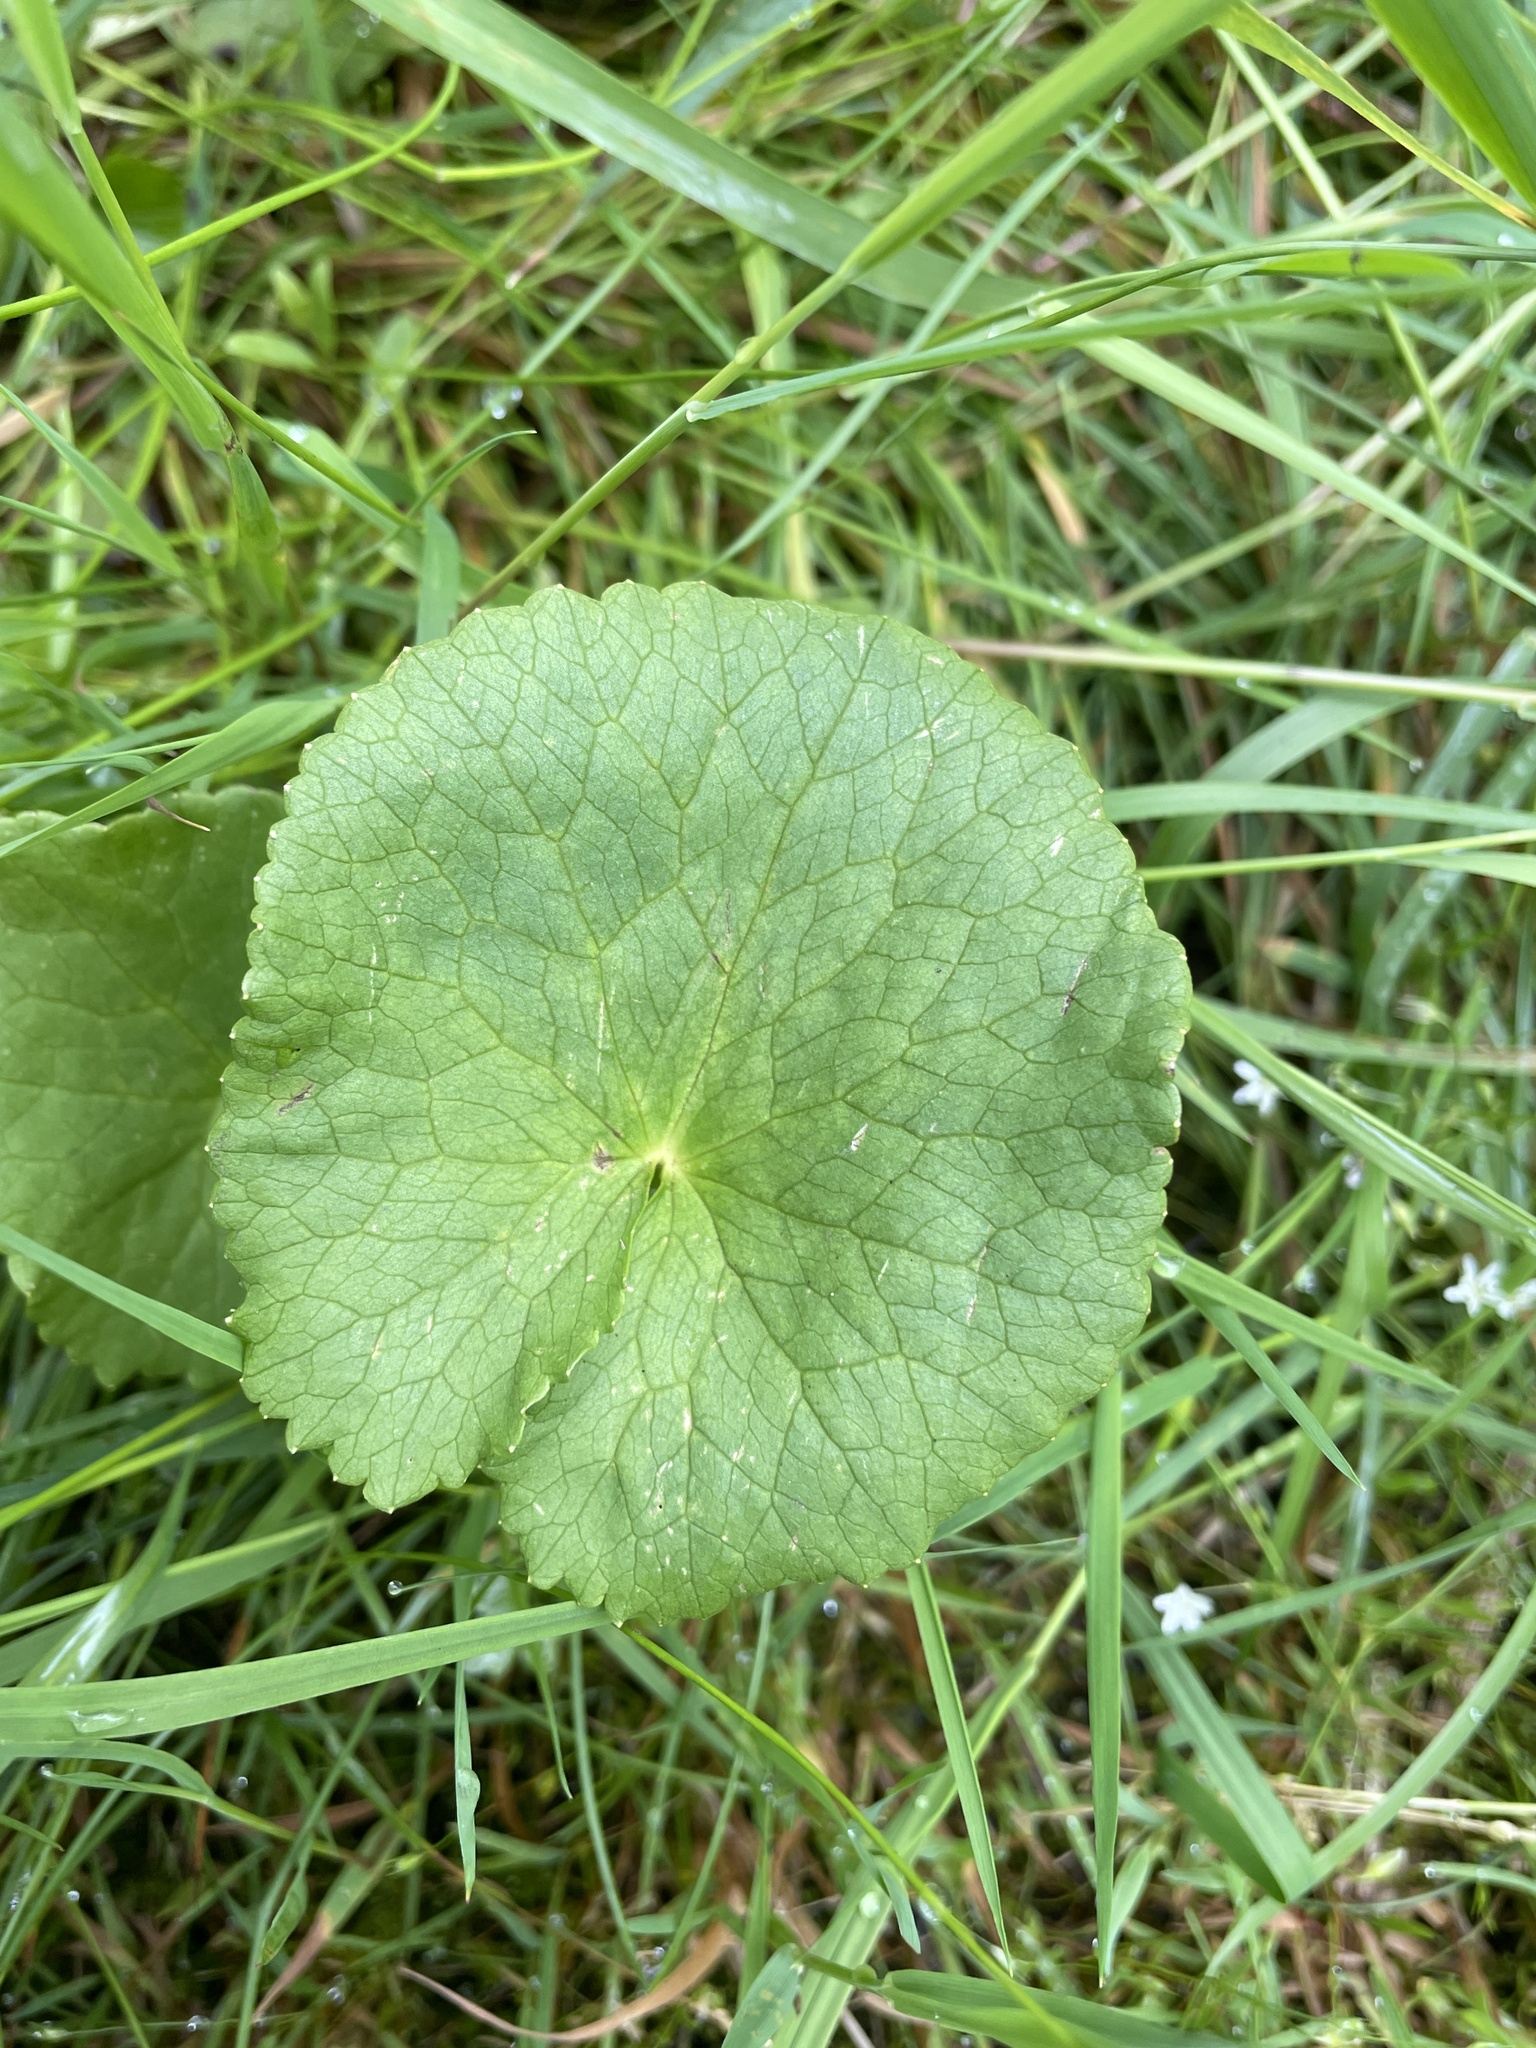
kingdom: Plantae
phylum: Tracheophyta
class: Magnoliopsida
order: Ranunculales
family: Ranunculaceae
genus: Caltha
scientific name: Caltha palustris
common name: Marsh marigold
